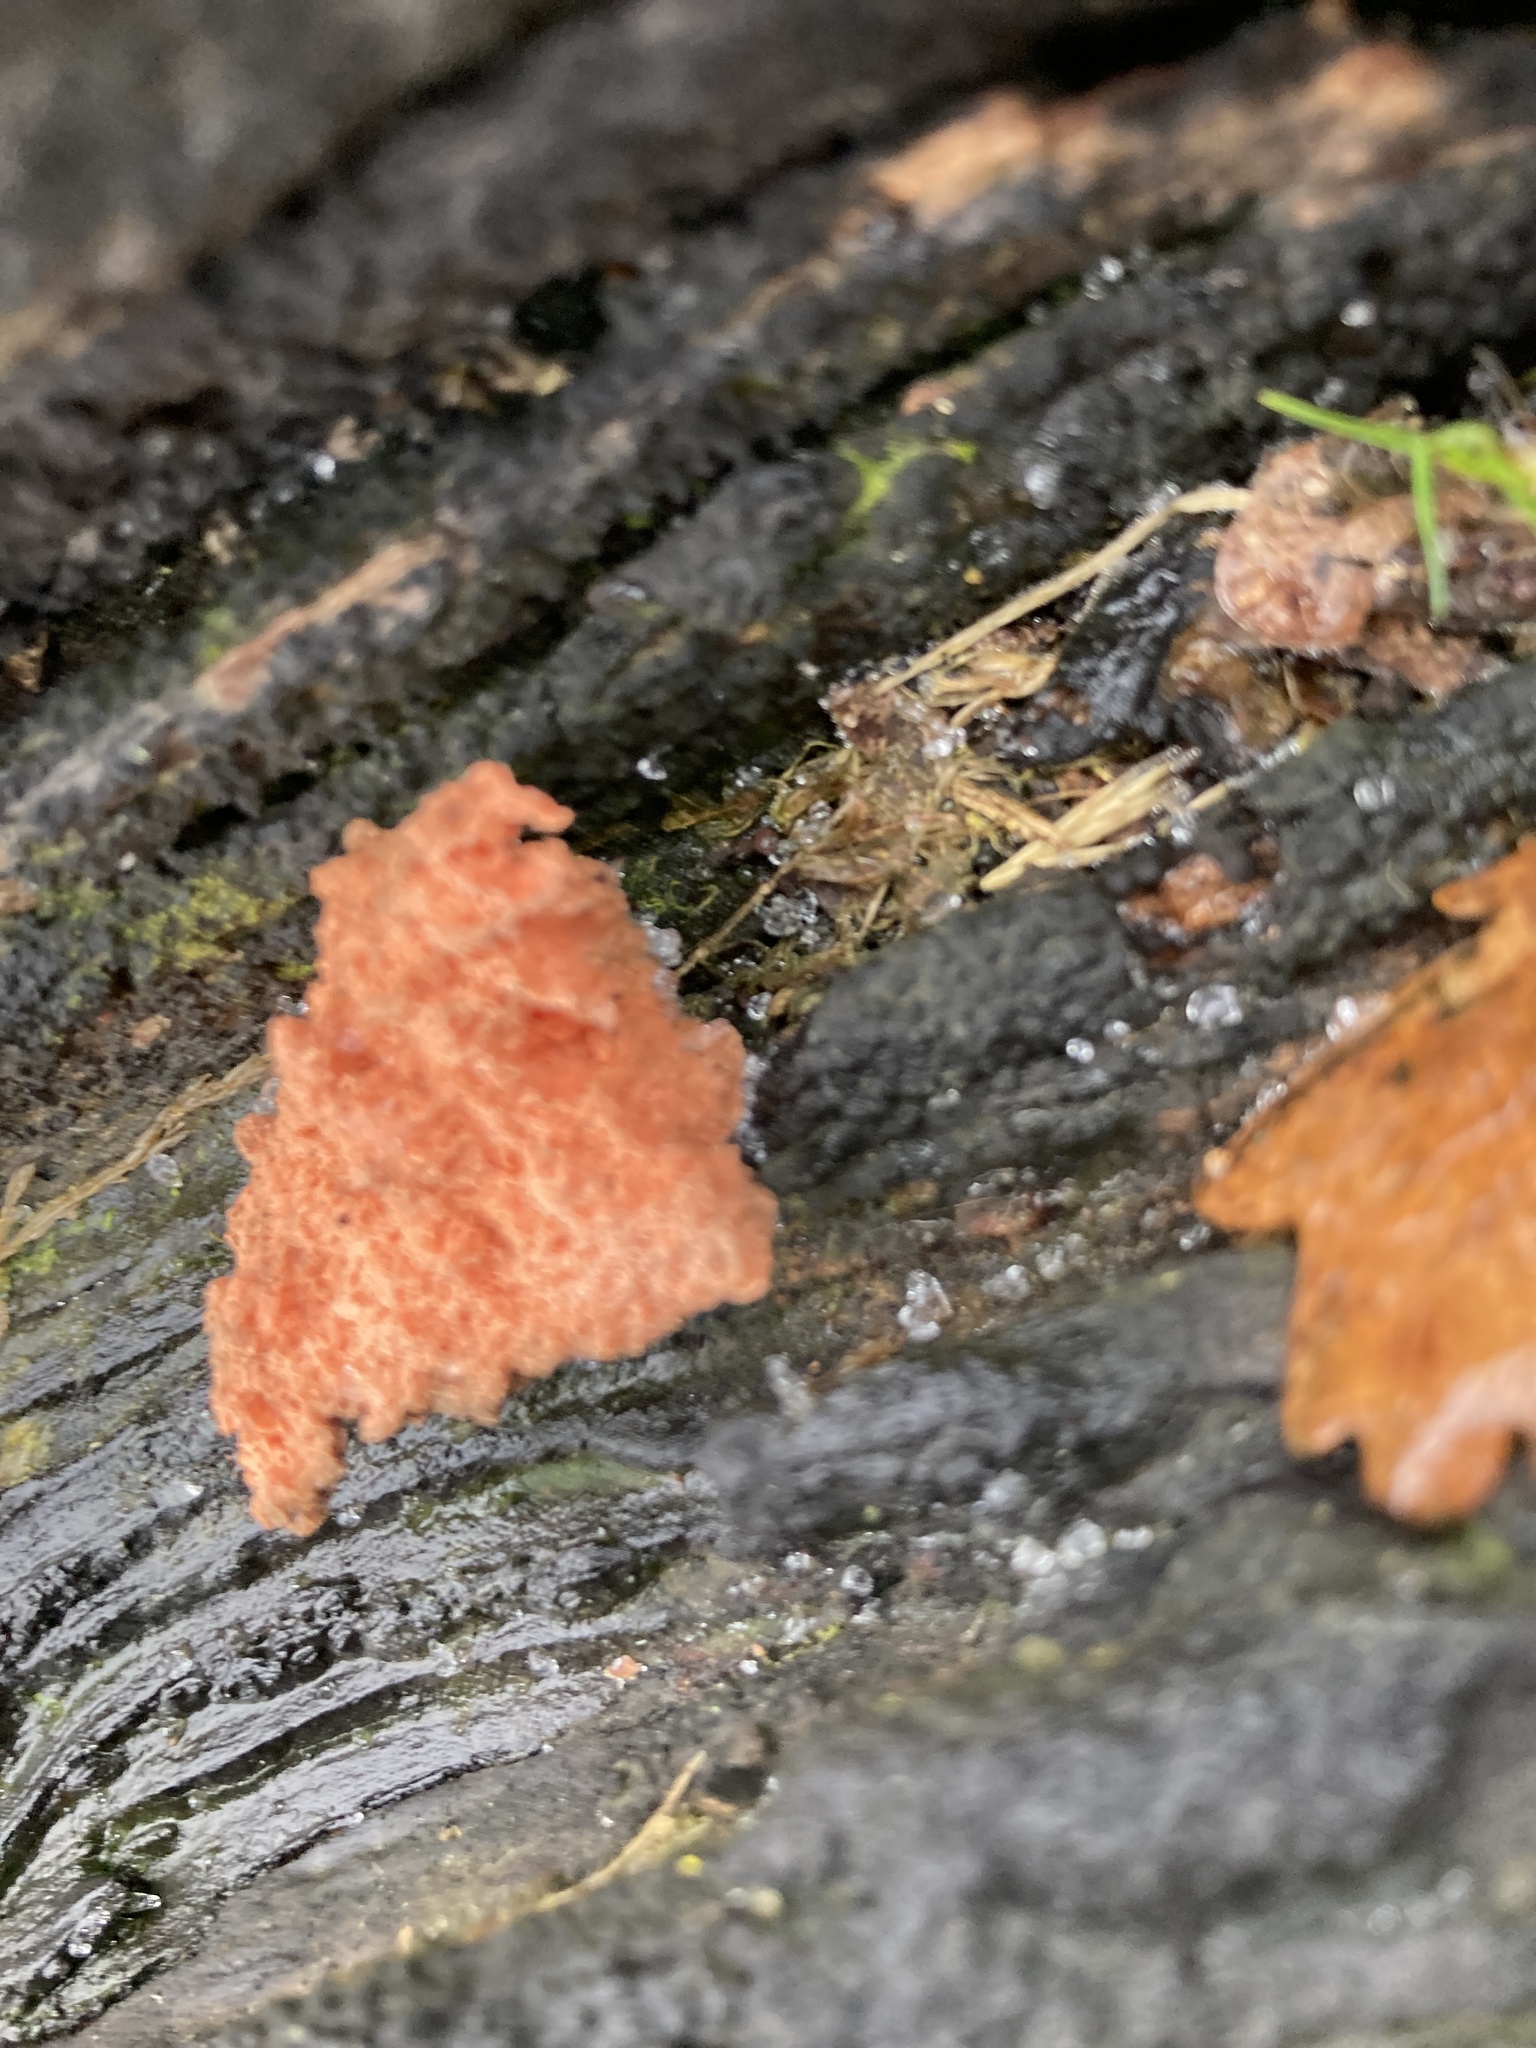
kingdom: Protozoa
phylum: Mycetozoa
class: Myxomycetes
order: Cribrariales
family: Tubiferaceae
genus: Tubifera
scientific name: Tubifera ferruginosa
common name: Red raspberry slime mold
